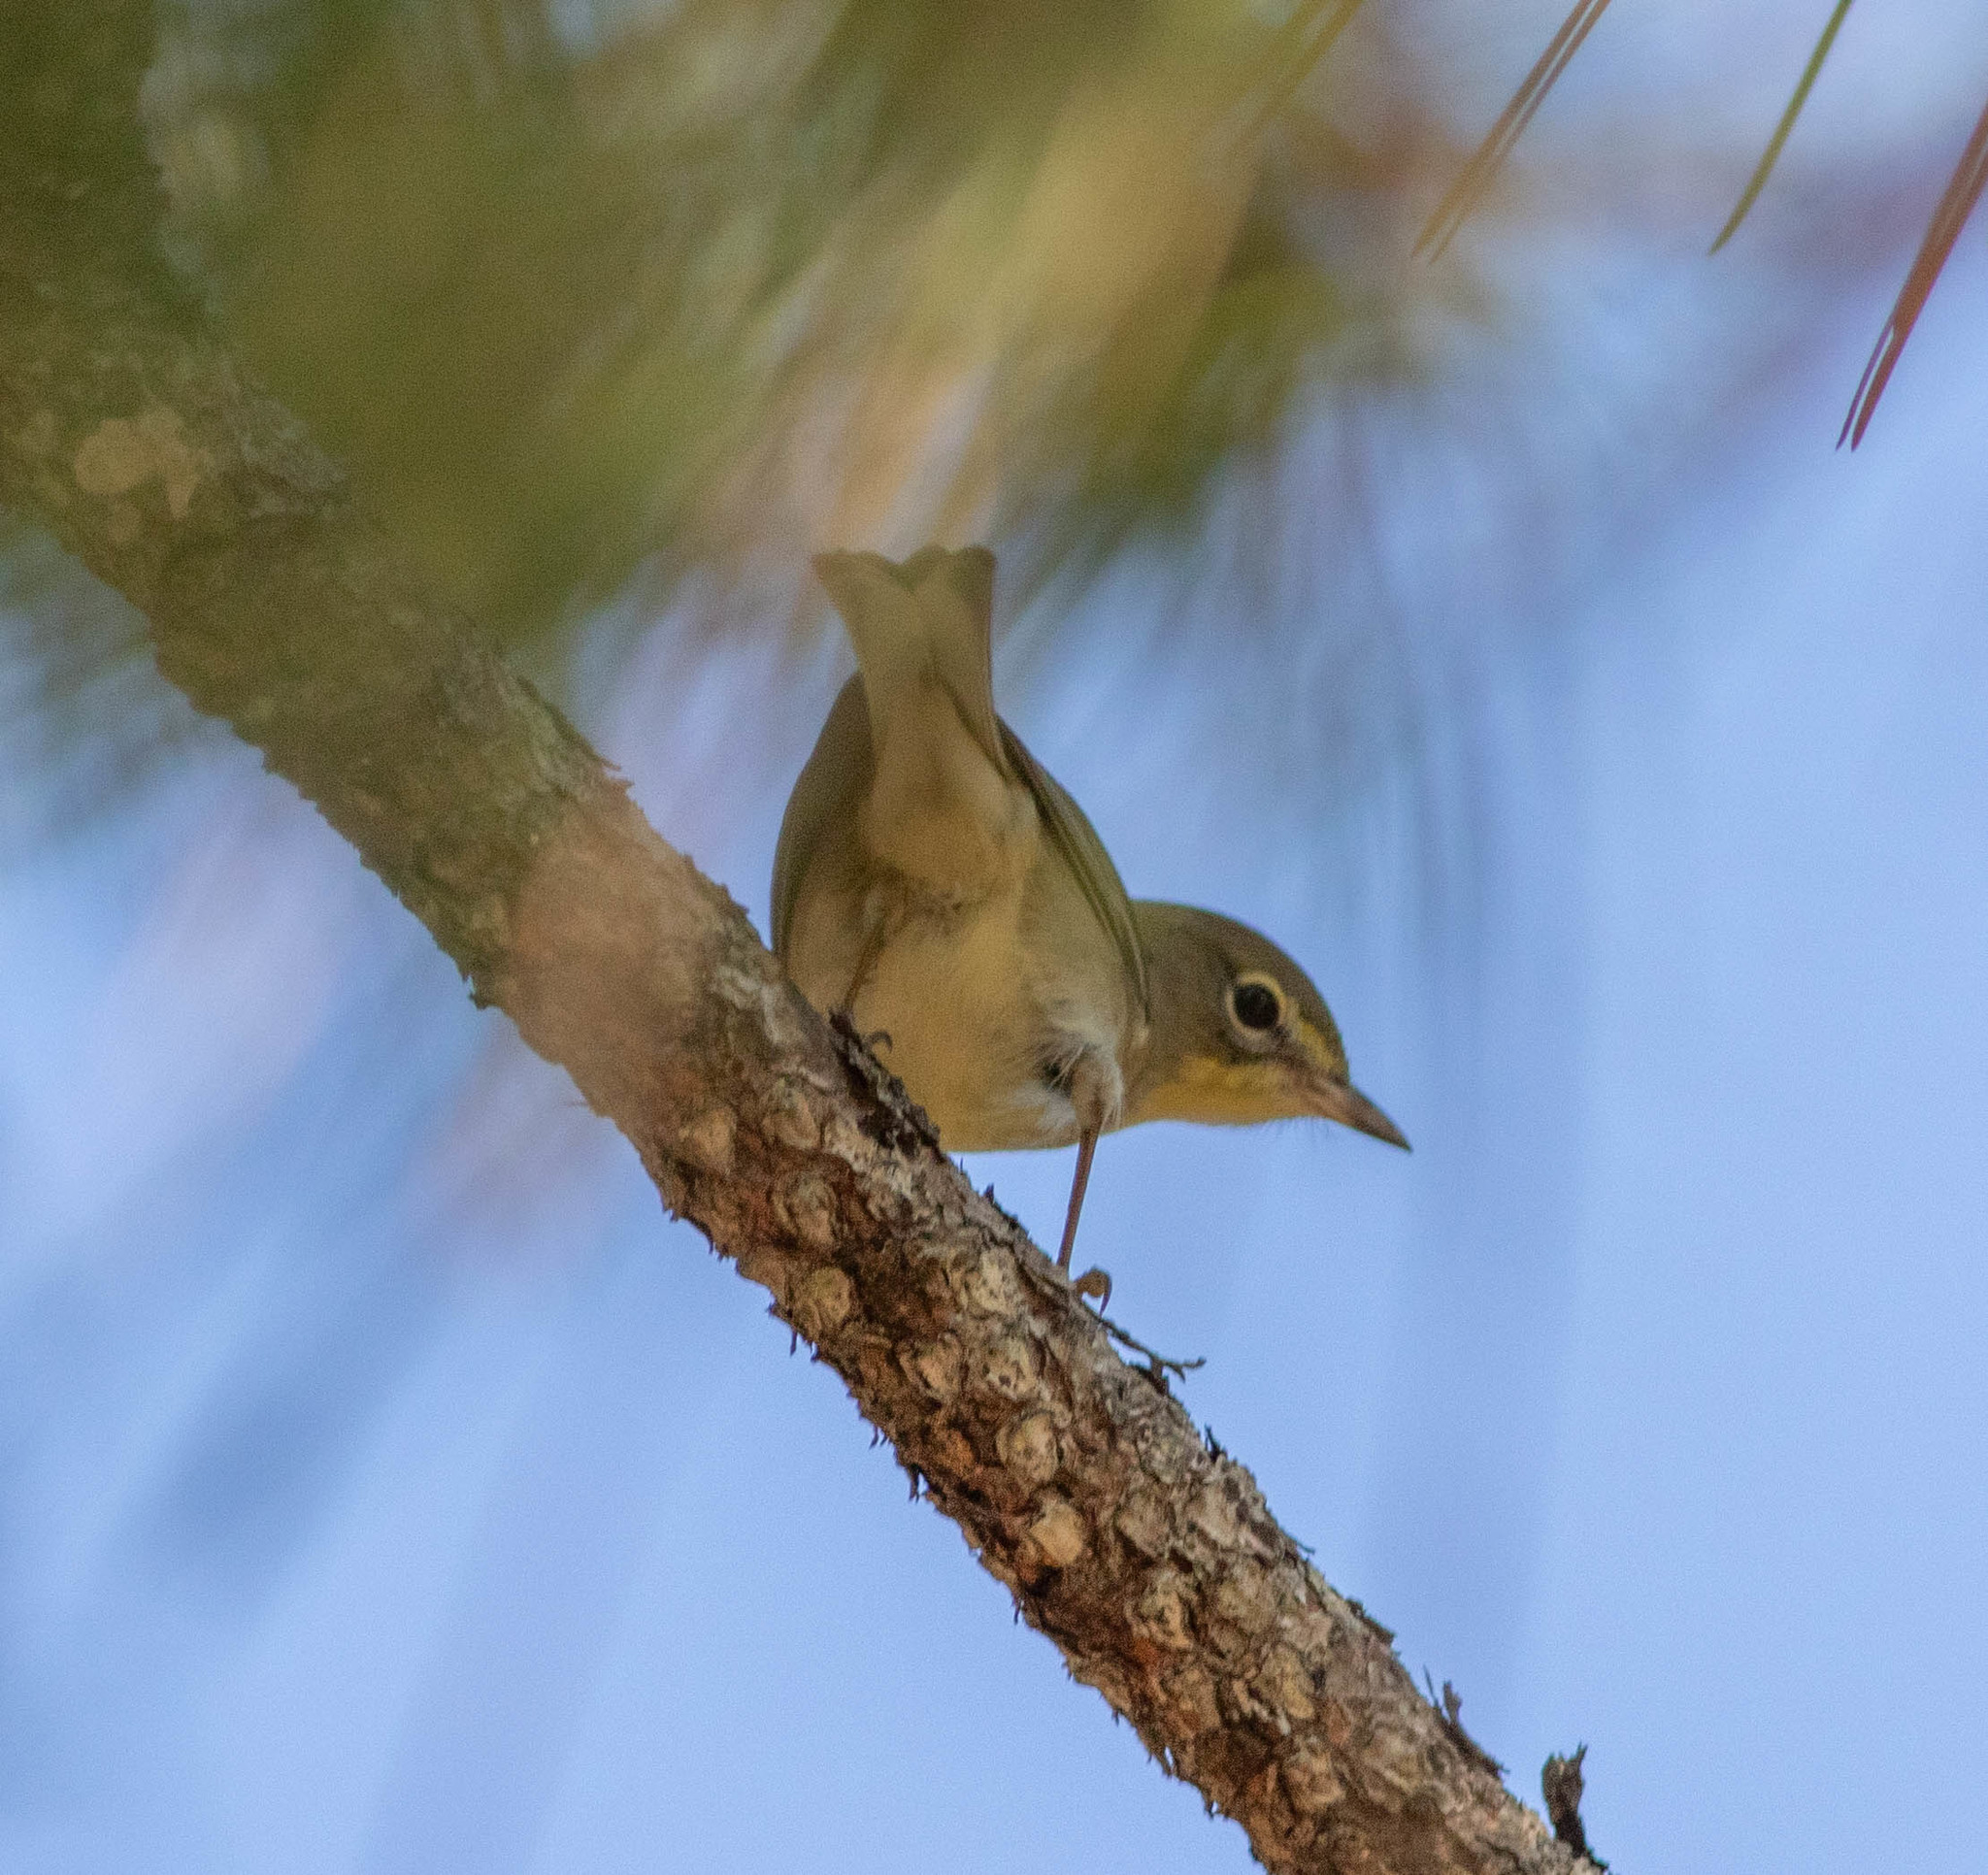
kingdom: Animalia
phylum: Chordata
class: Aves
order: Passeriformes
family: Parulidae
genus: Setophaga
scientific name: Setophaga pinus
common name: Pine warbler
